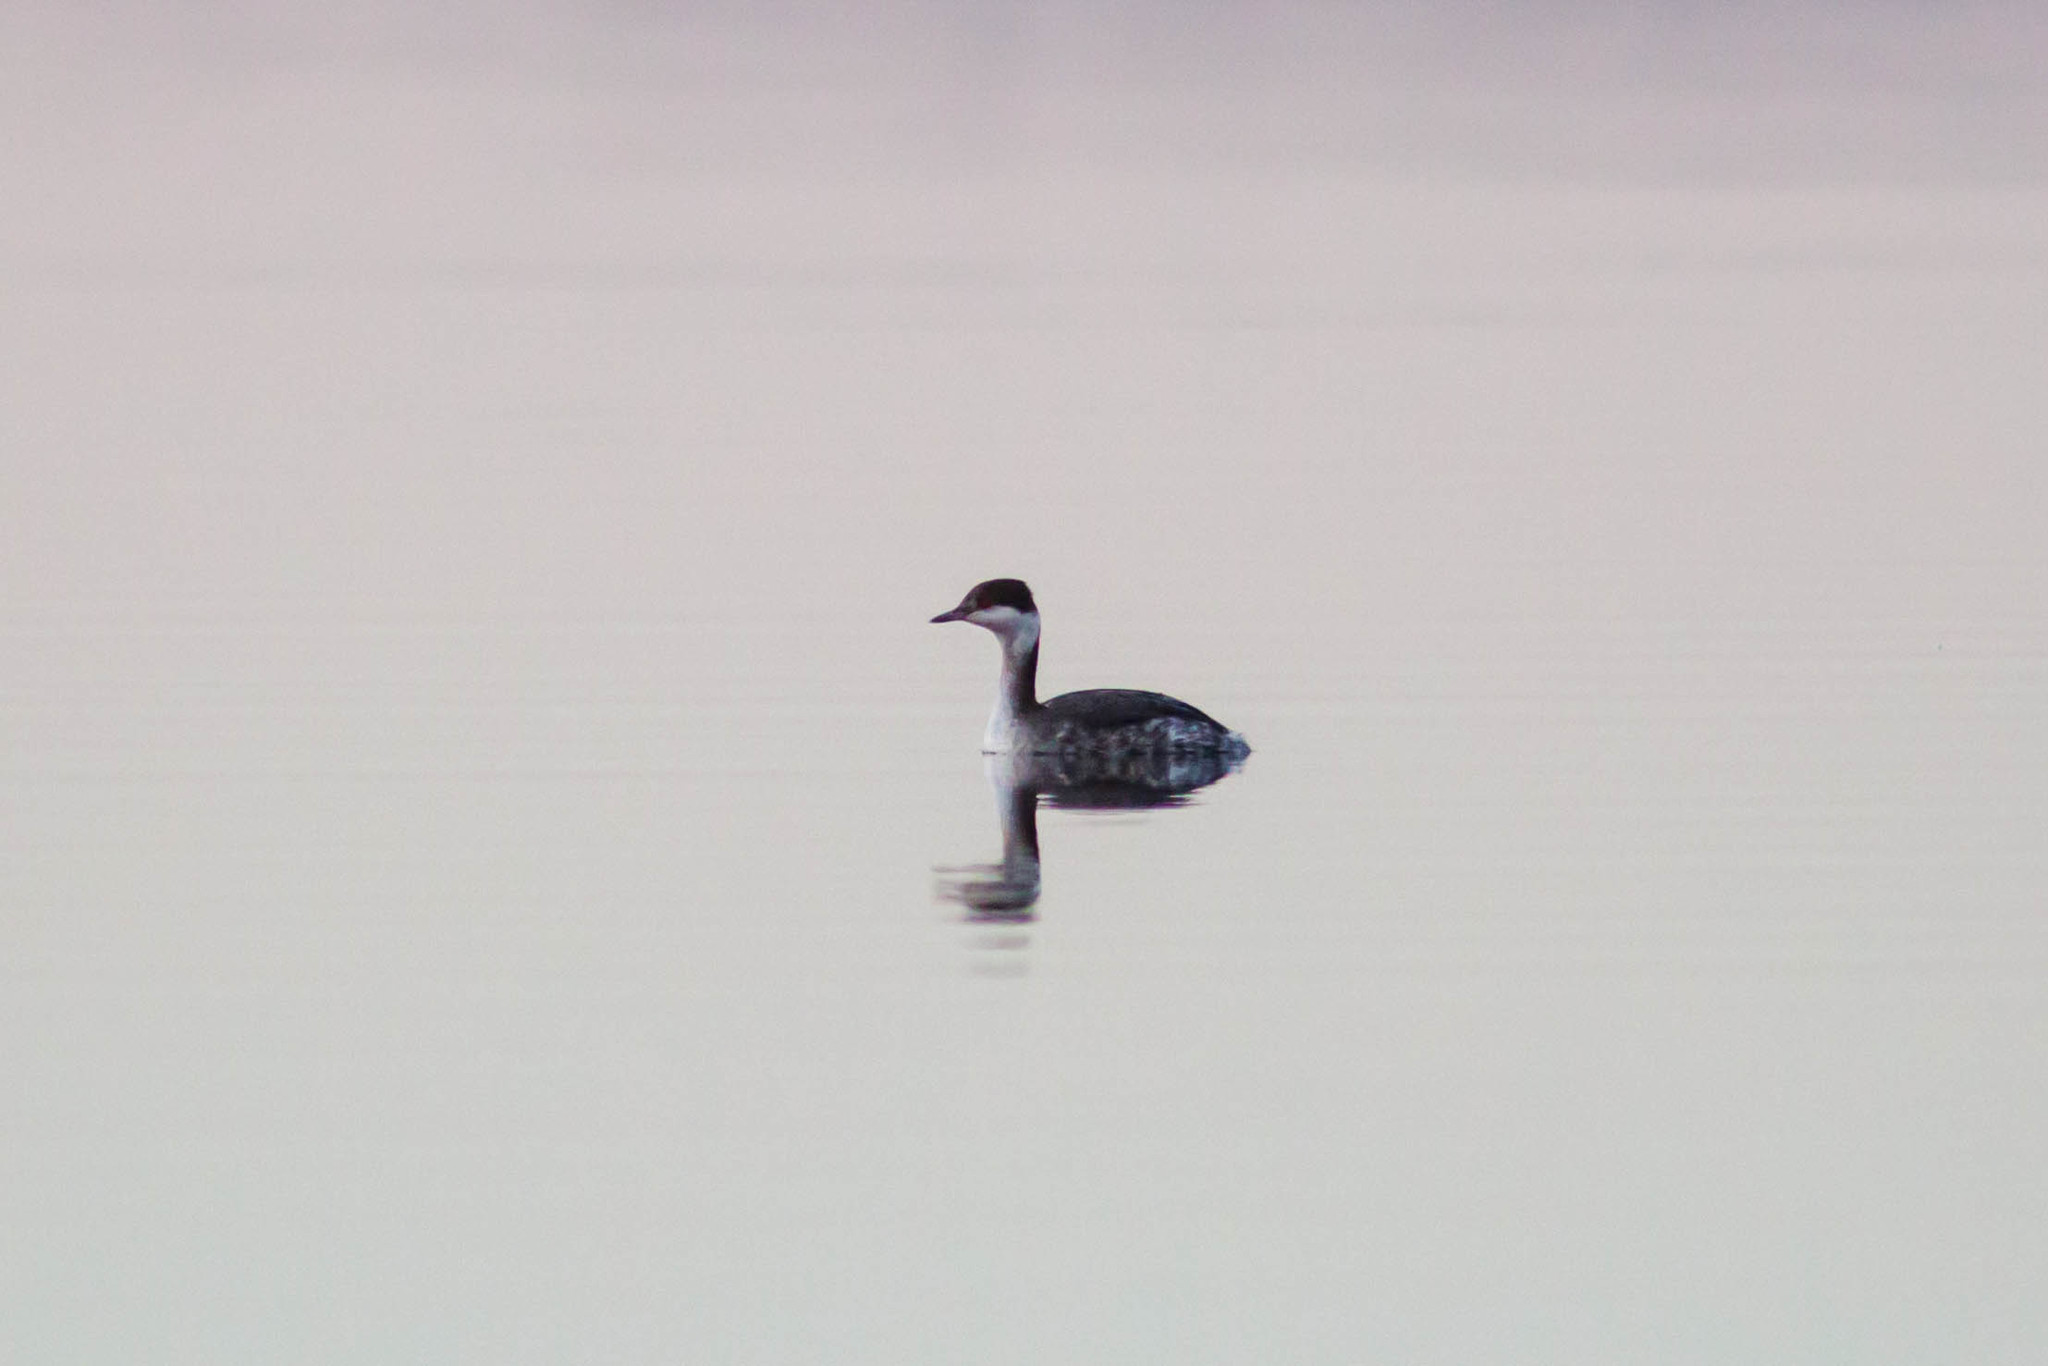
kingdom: Animalia
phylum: Chordata
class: Aves
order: Podicipediformes
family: Podicipedidae
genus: Podiceps
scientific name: Podiceps auritus
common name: Horned grebe
